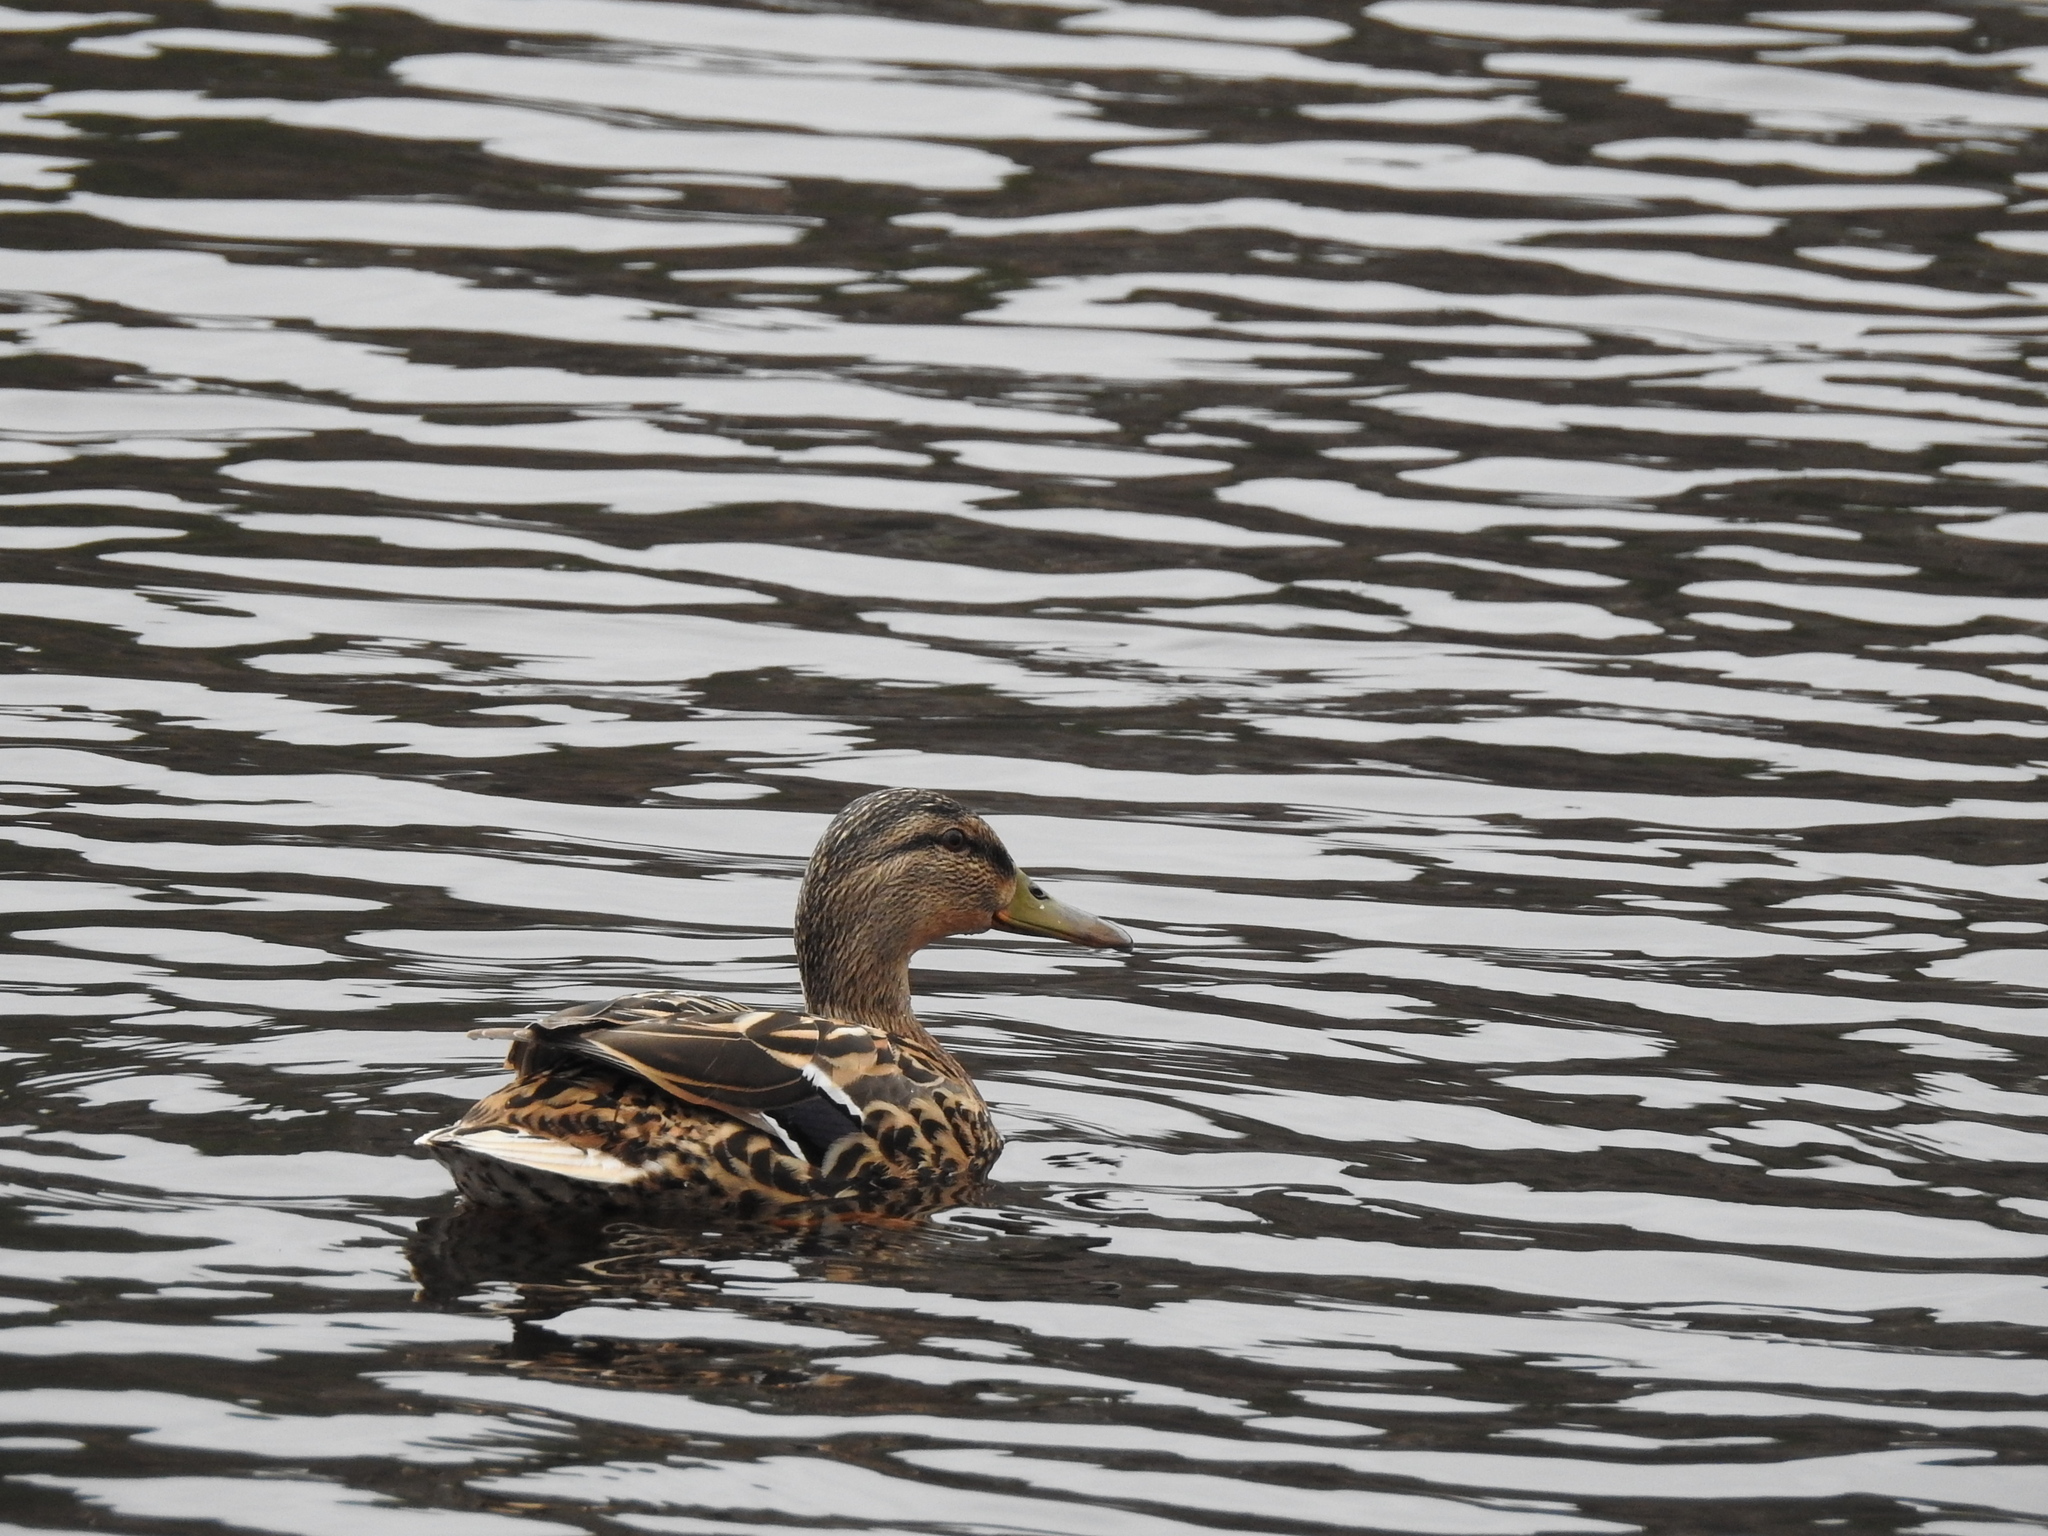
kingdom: Animalia
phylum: Chordata
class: Aves
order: Anseriformes
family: Anatidae
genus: Anas
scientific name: Anas platyrhynchos
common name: Mallard
